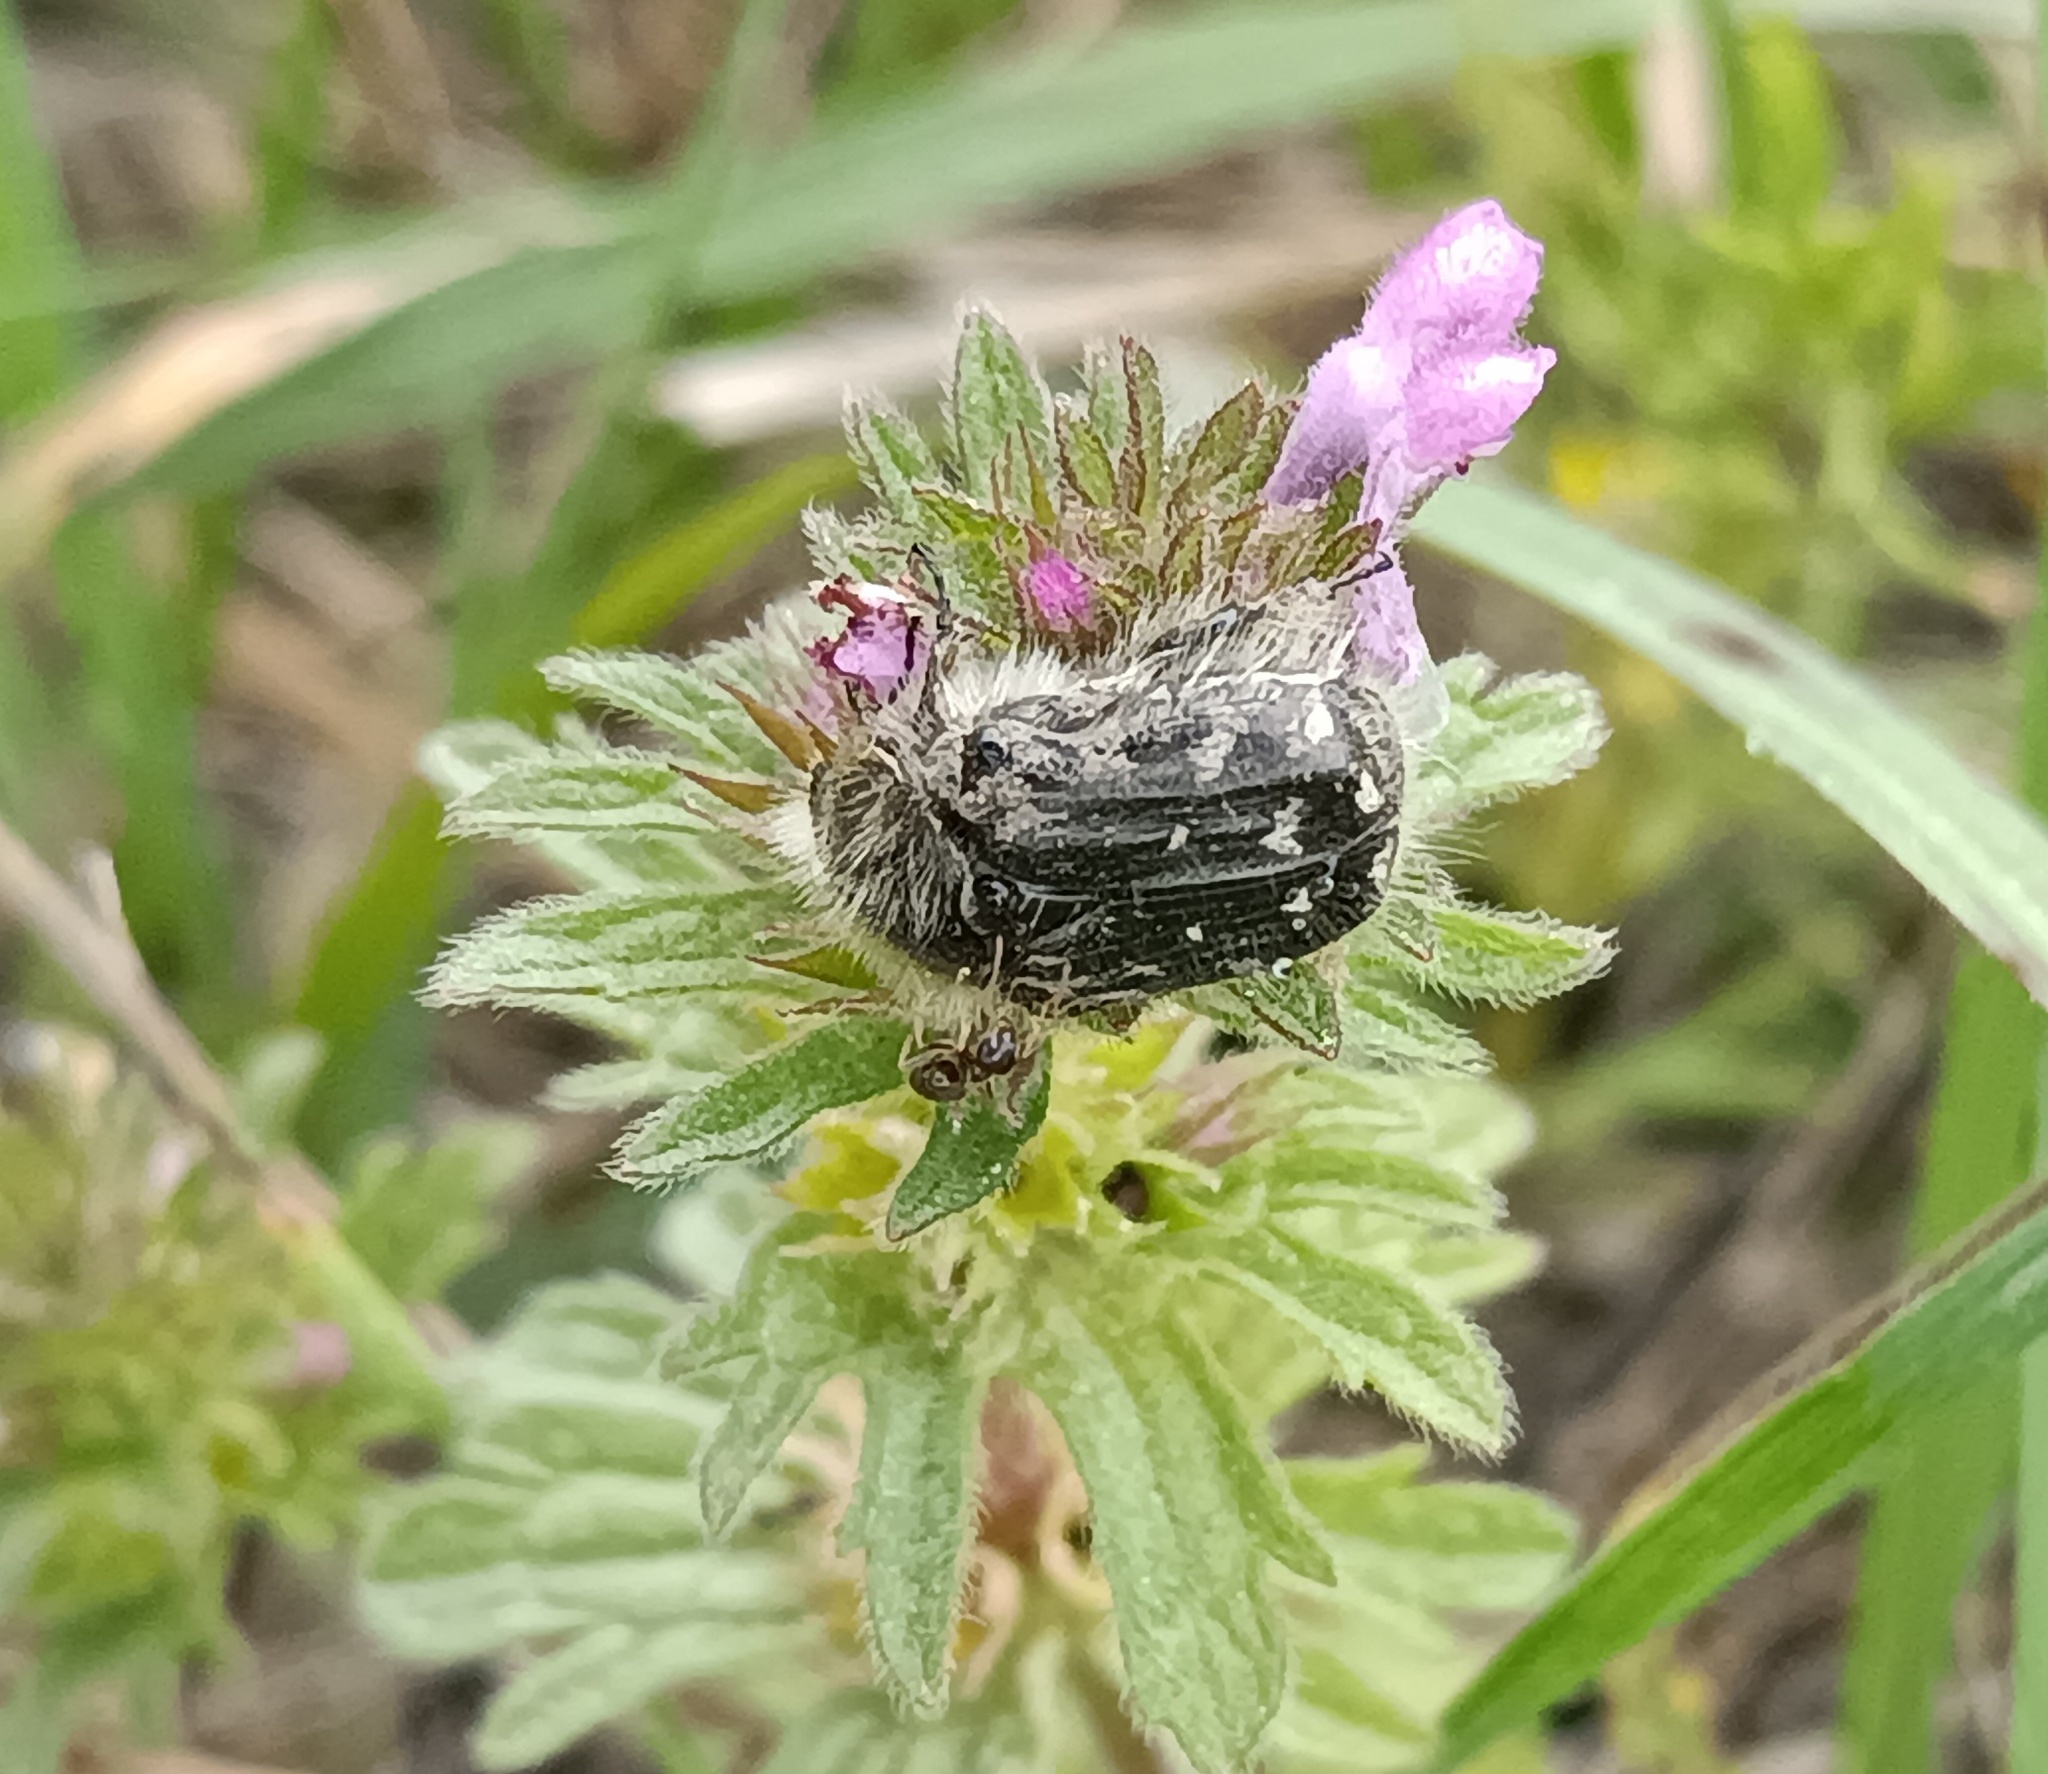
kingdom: Animalia
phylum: Arthropoda
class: Insecta
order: Coleoptera
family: Scarabaeidae
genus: Tropinota
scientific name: Tropinota hirta
